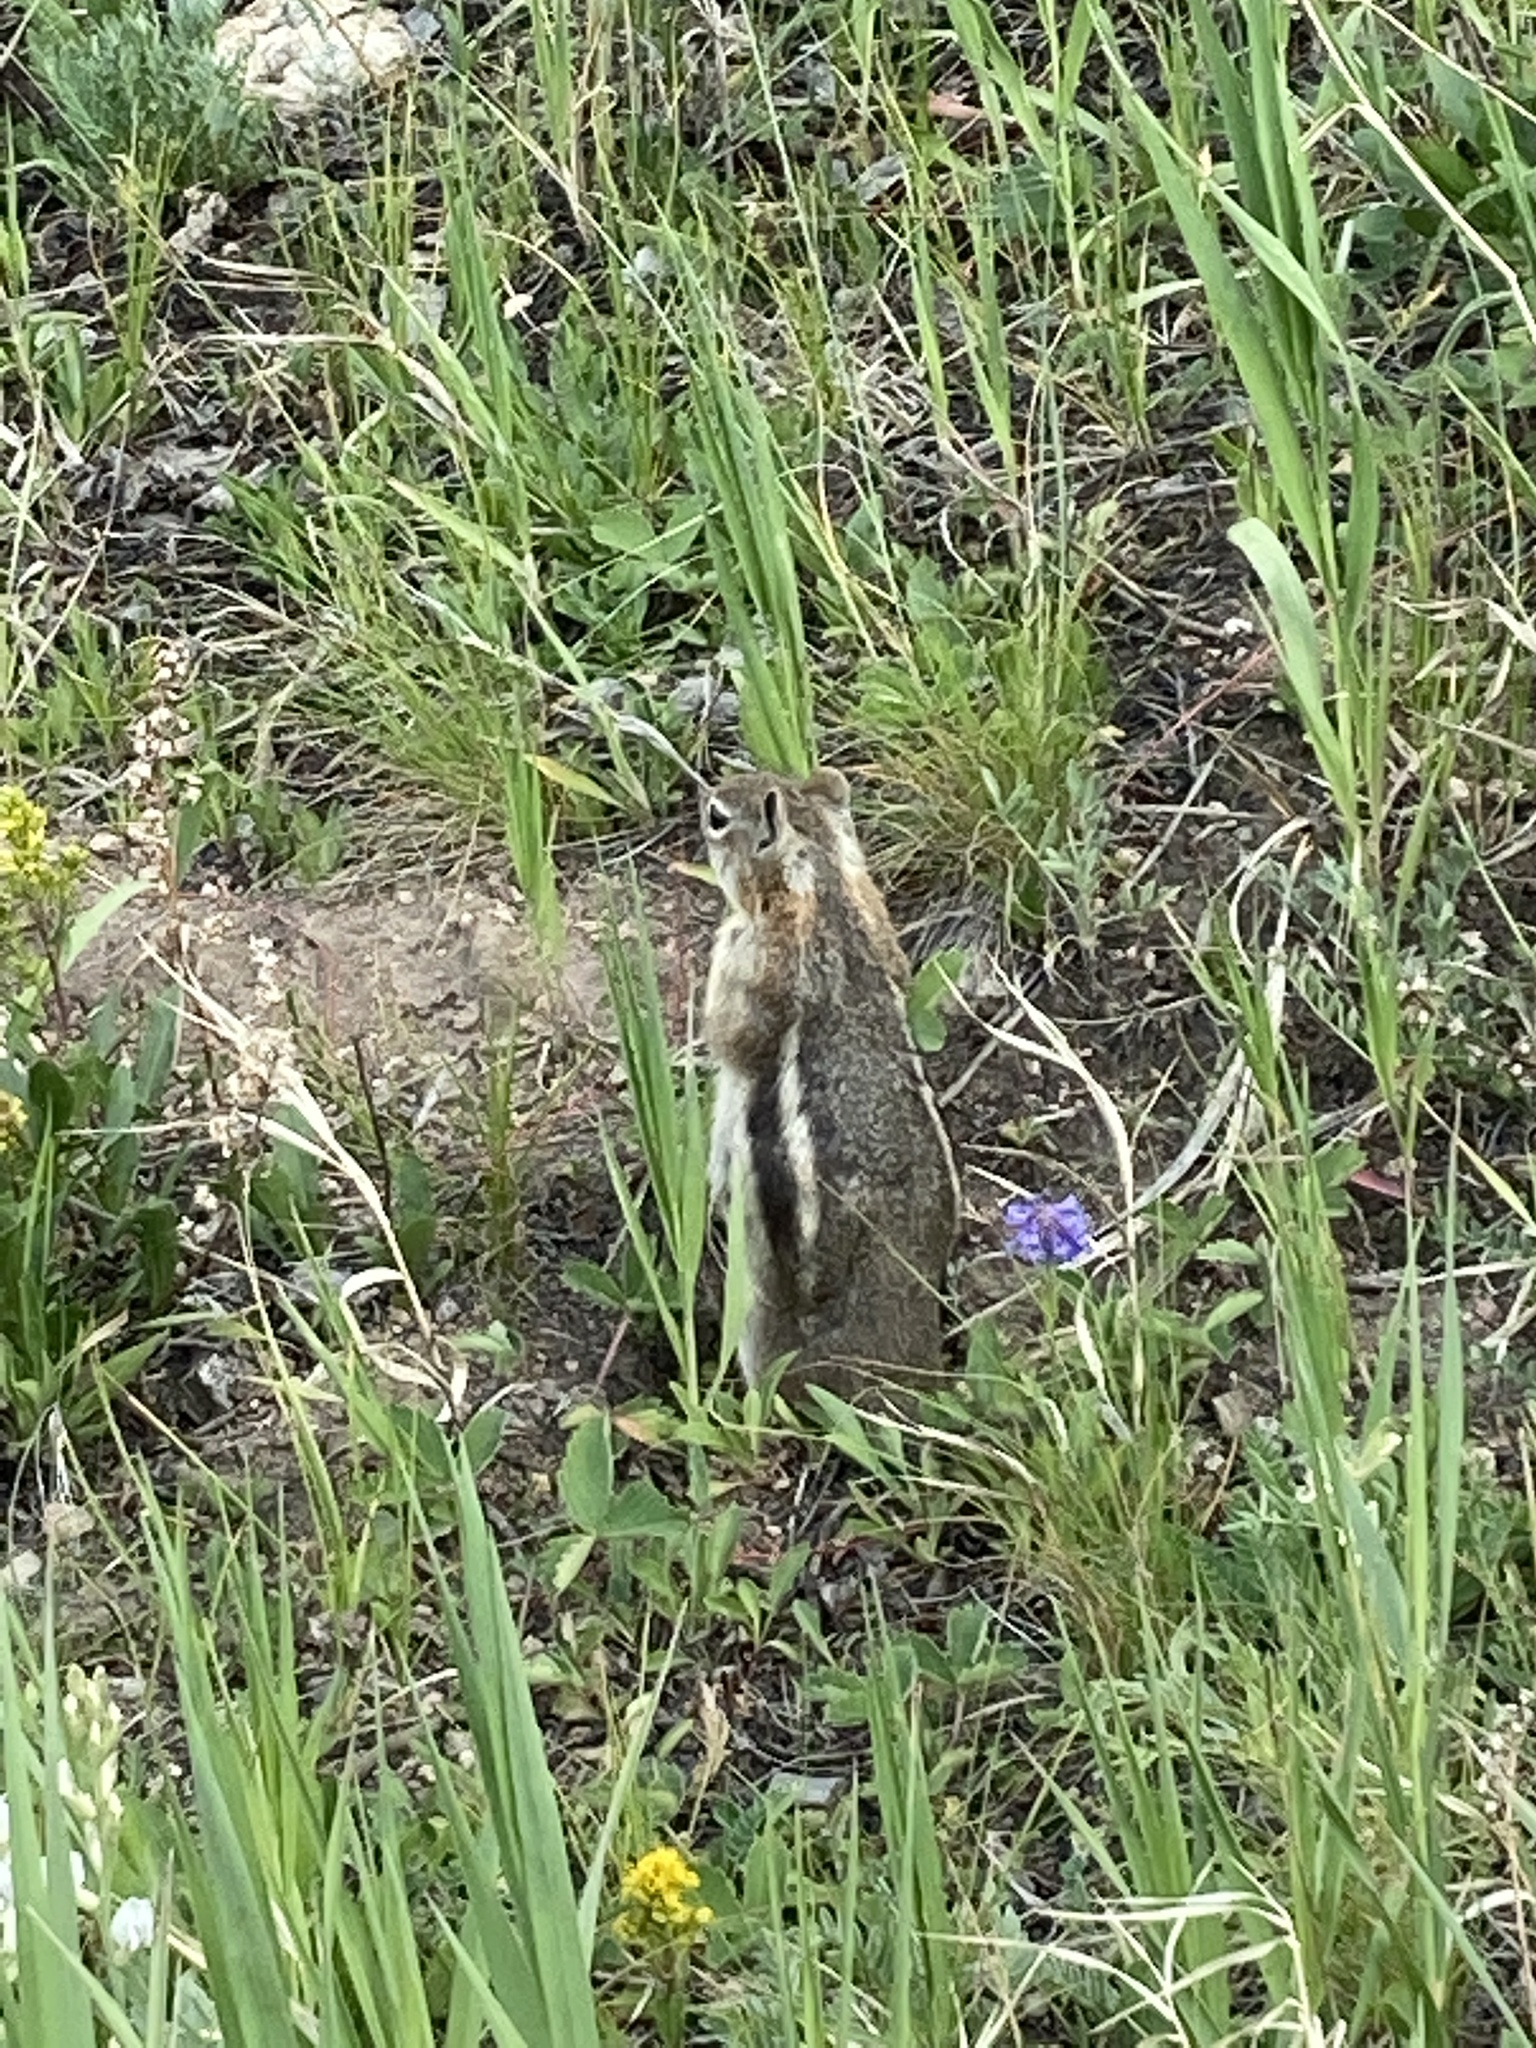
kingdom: Animalia
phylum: Chordata
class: Mammalia
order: Rodentia
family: Sciuridae
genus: Callospermophilus
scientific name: Callospermophilus lateralis
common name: Golden-mantled ground squirrel
